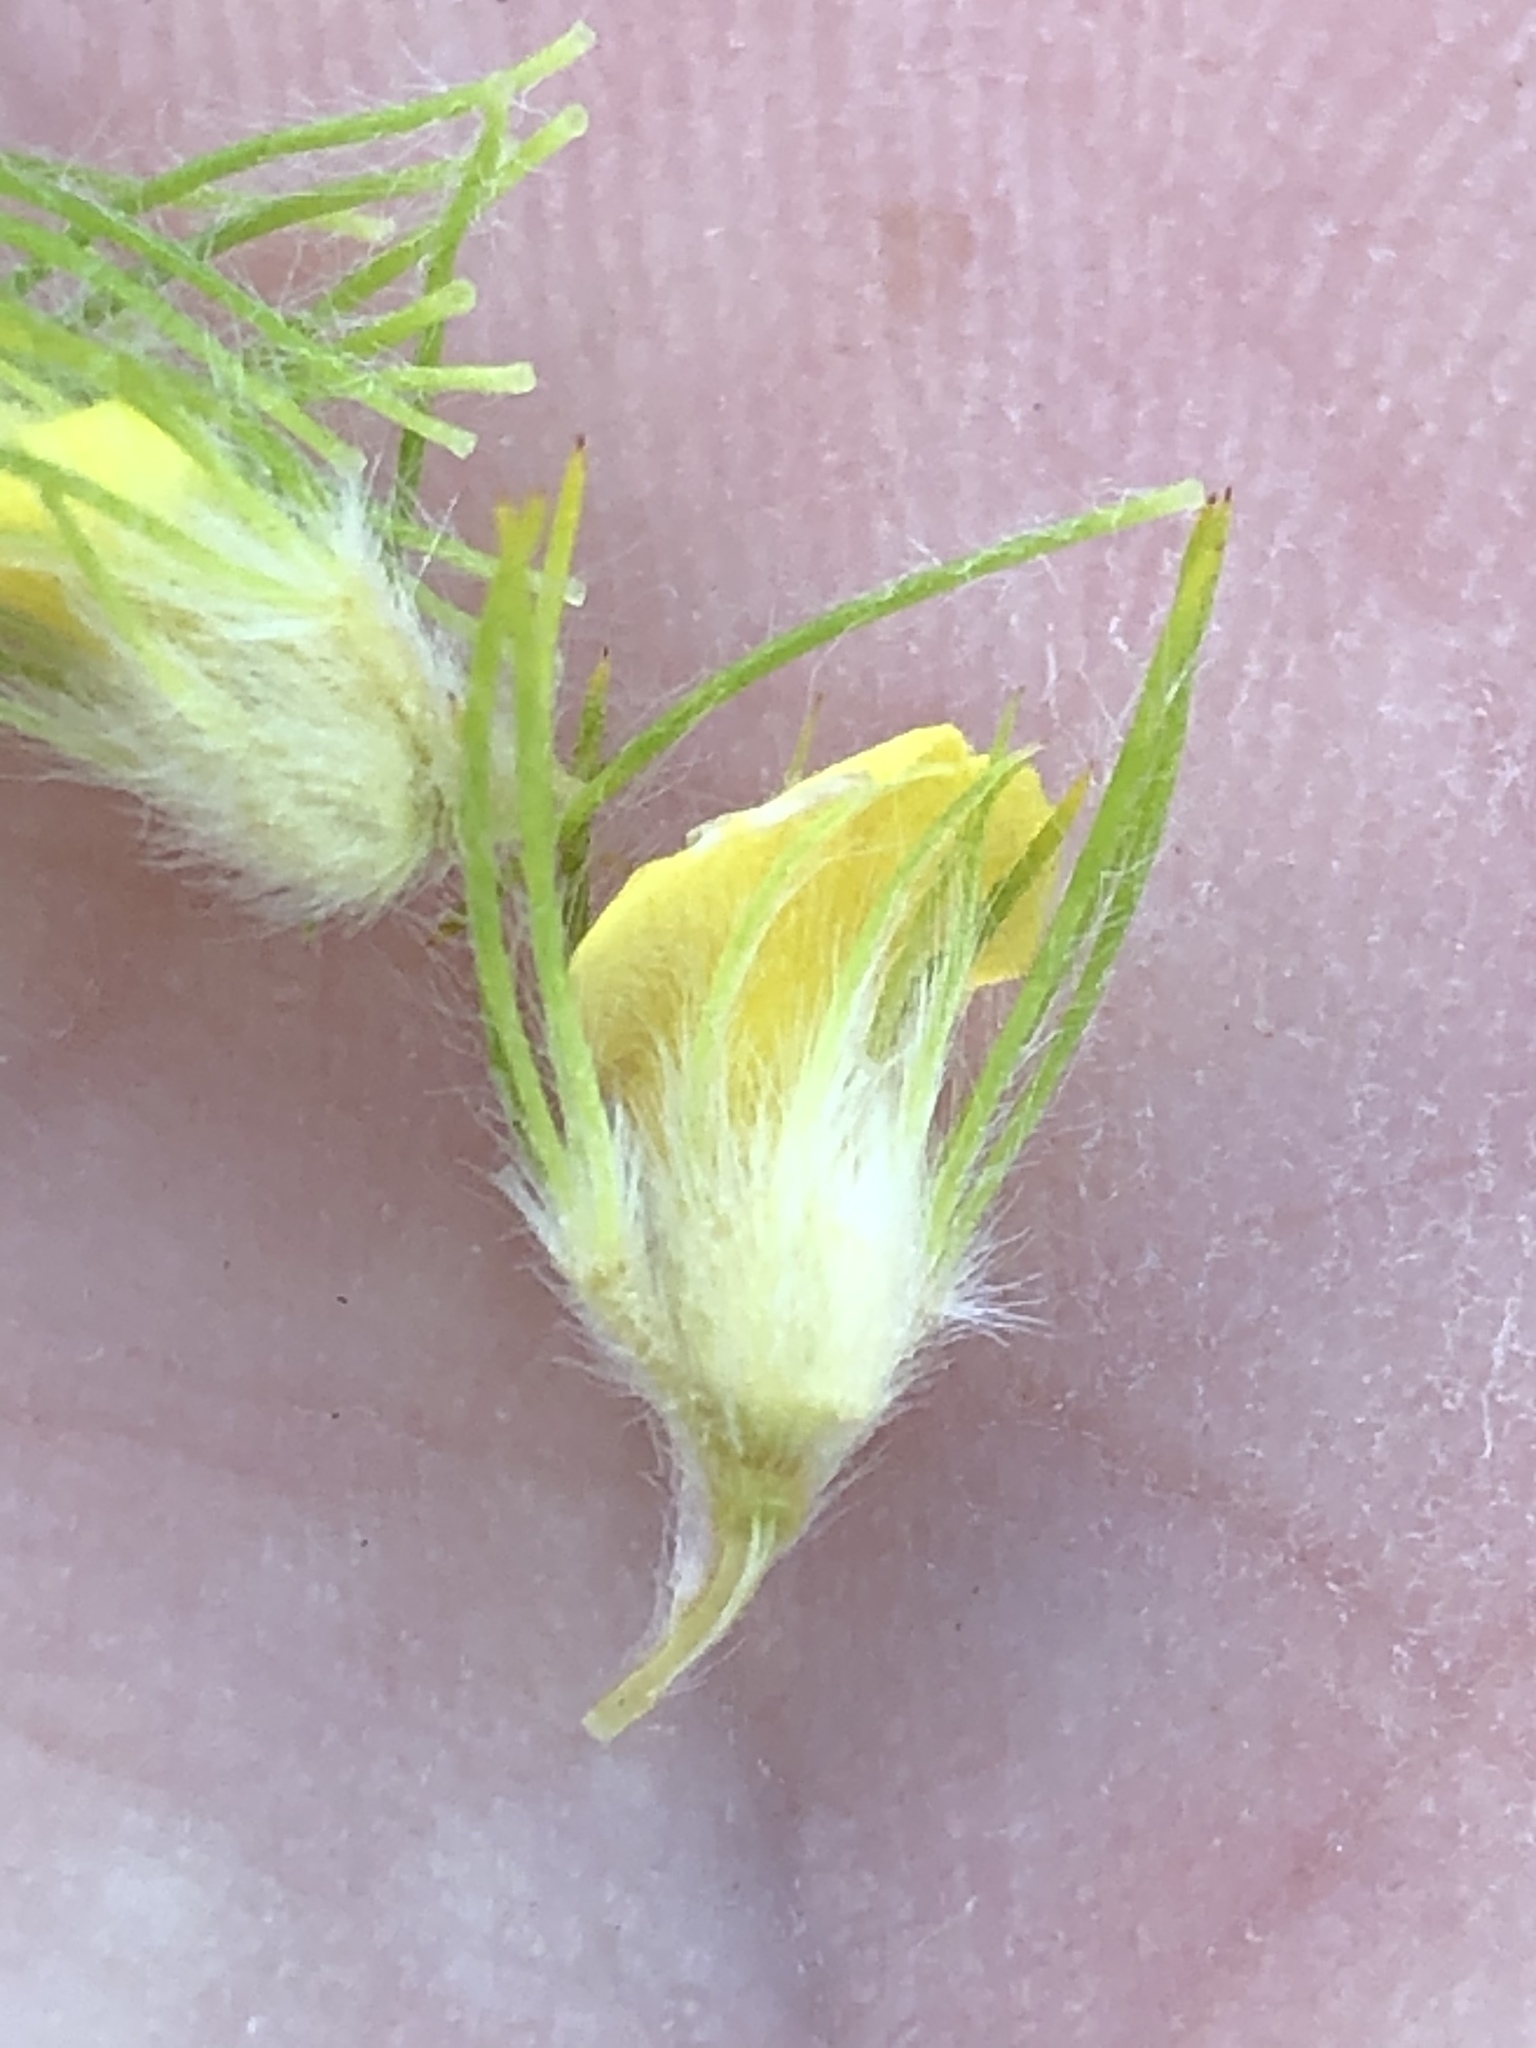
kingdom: Plantae
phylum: Tracheophyta
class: Magnoliopsida
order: Fabales
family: Fabaceae
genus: Aspalathus
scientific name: Aspalathus alopecurus
